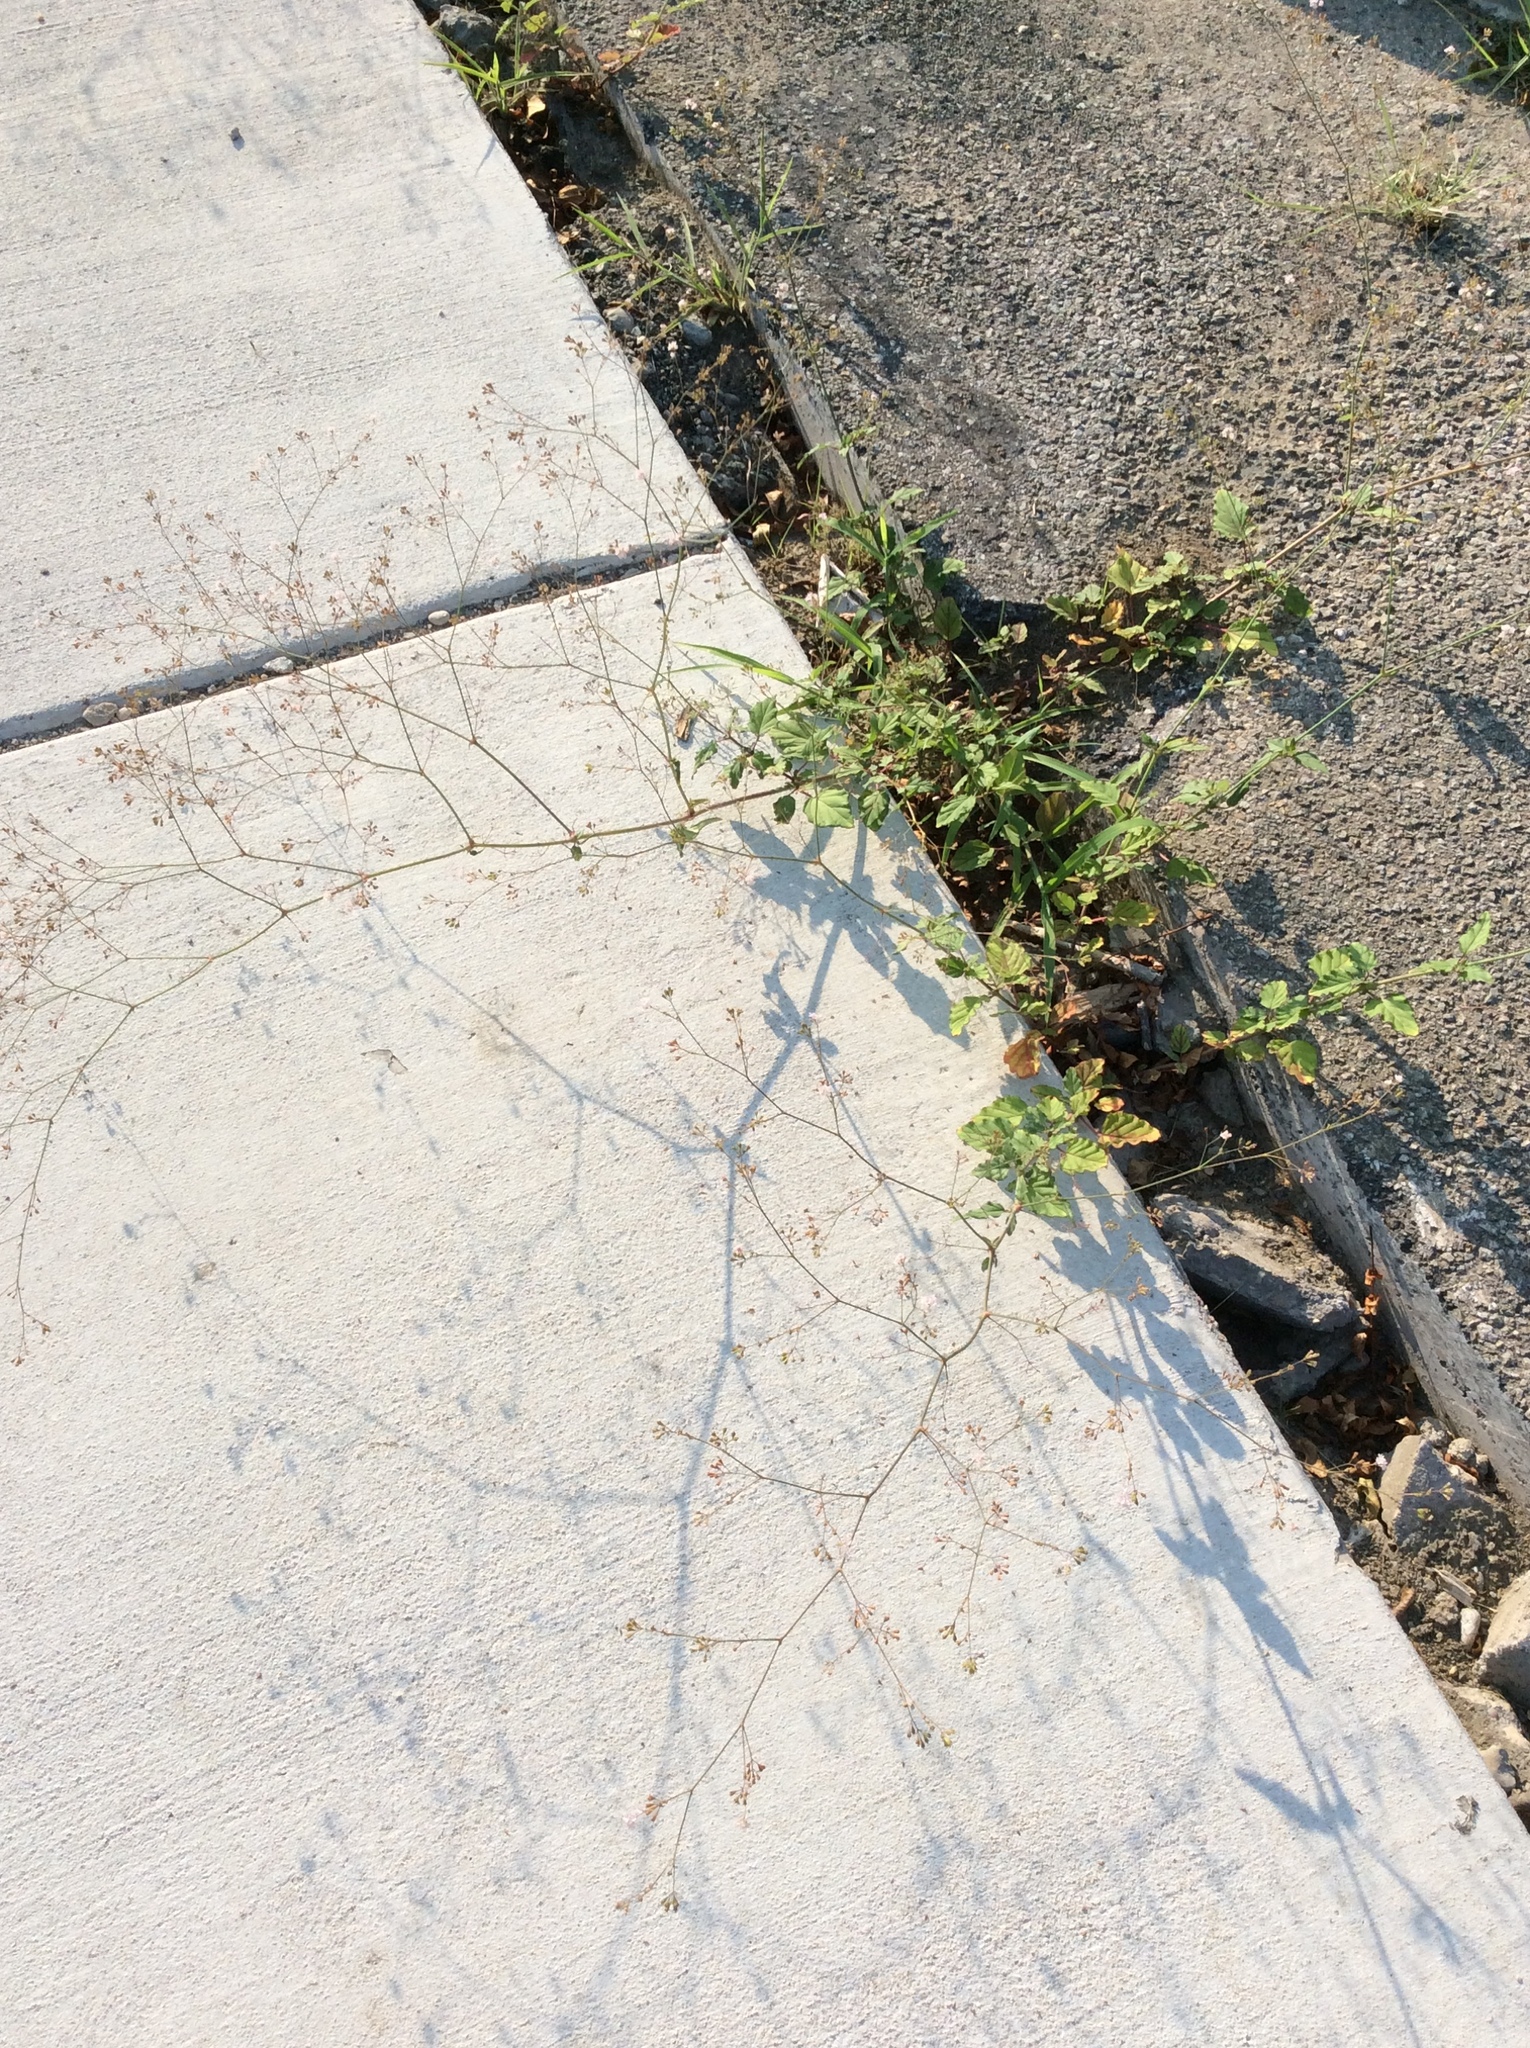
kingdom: Plantae
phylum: Tracheophyta
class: Magnoliopsida
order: Caryophyllales
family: Nyctaginaceae
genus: Boerhavia
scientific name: Boerhavia erecta
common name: Erect spiderling
